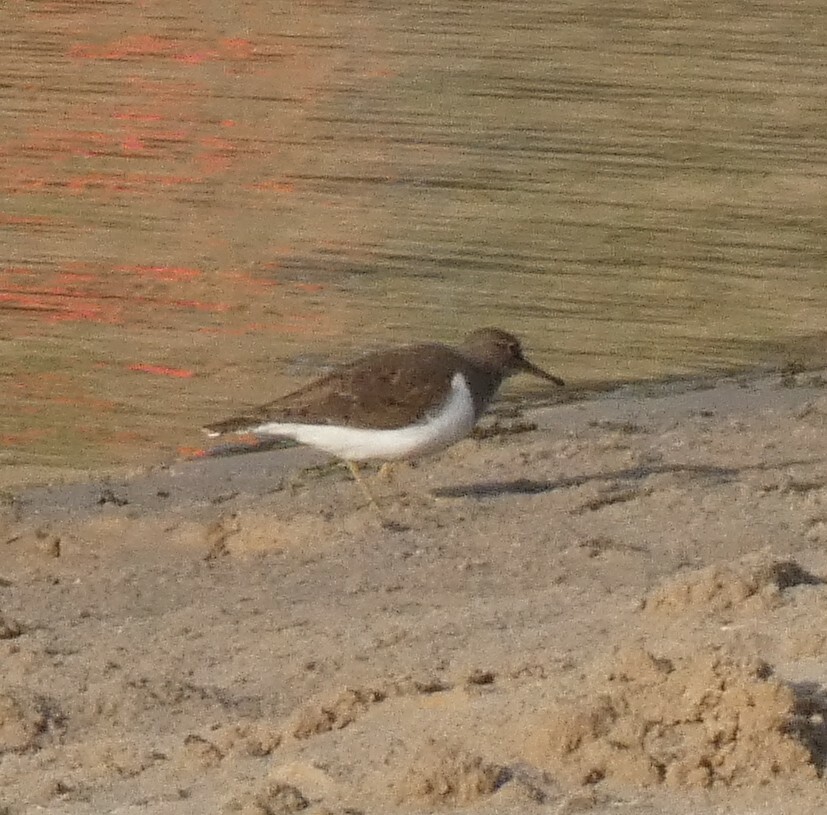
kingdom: Animalia
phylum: Chordata
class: Aves
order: Charadriiformes
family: Scolopacidae
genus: Actitis
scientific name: Actitis hypoleucos
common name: Common sandpiper
